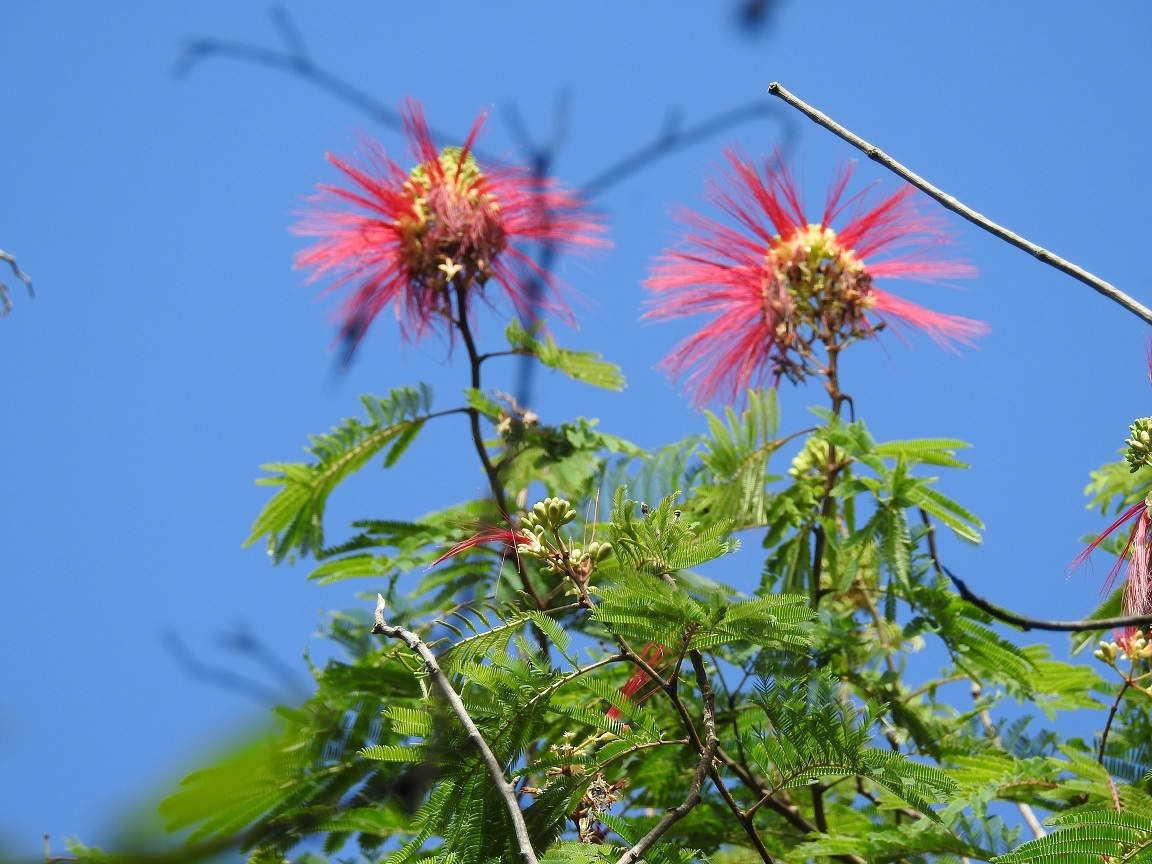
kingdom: Plantae
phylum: Tracheophyta
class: Magnoliopsida
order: Fabales
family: Fabaceae
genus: Calliandra
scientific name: Calliandra houstoniana
